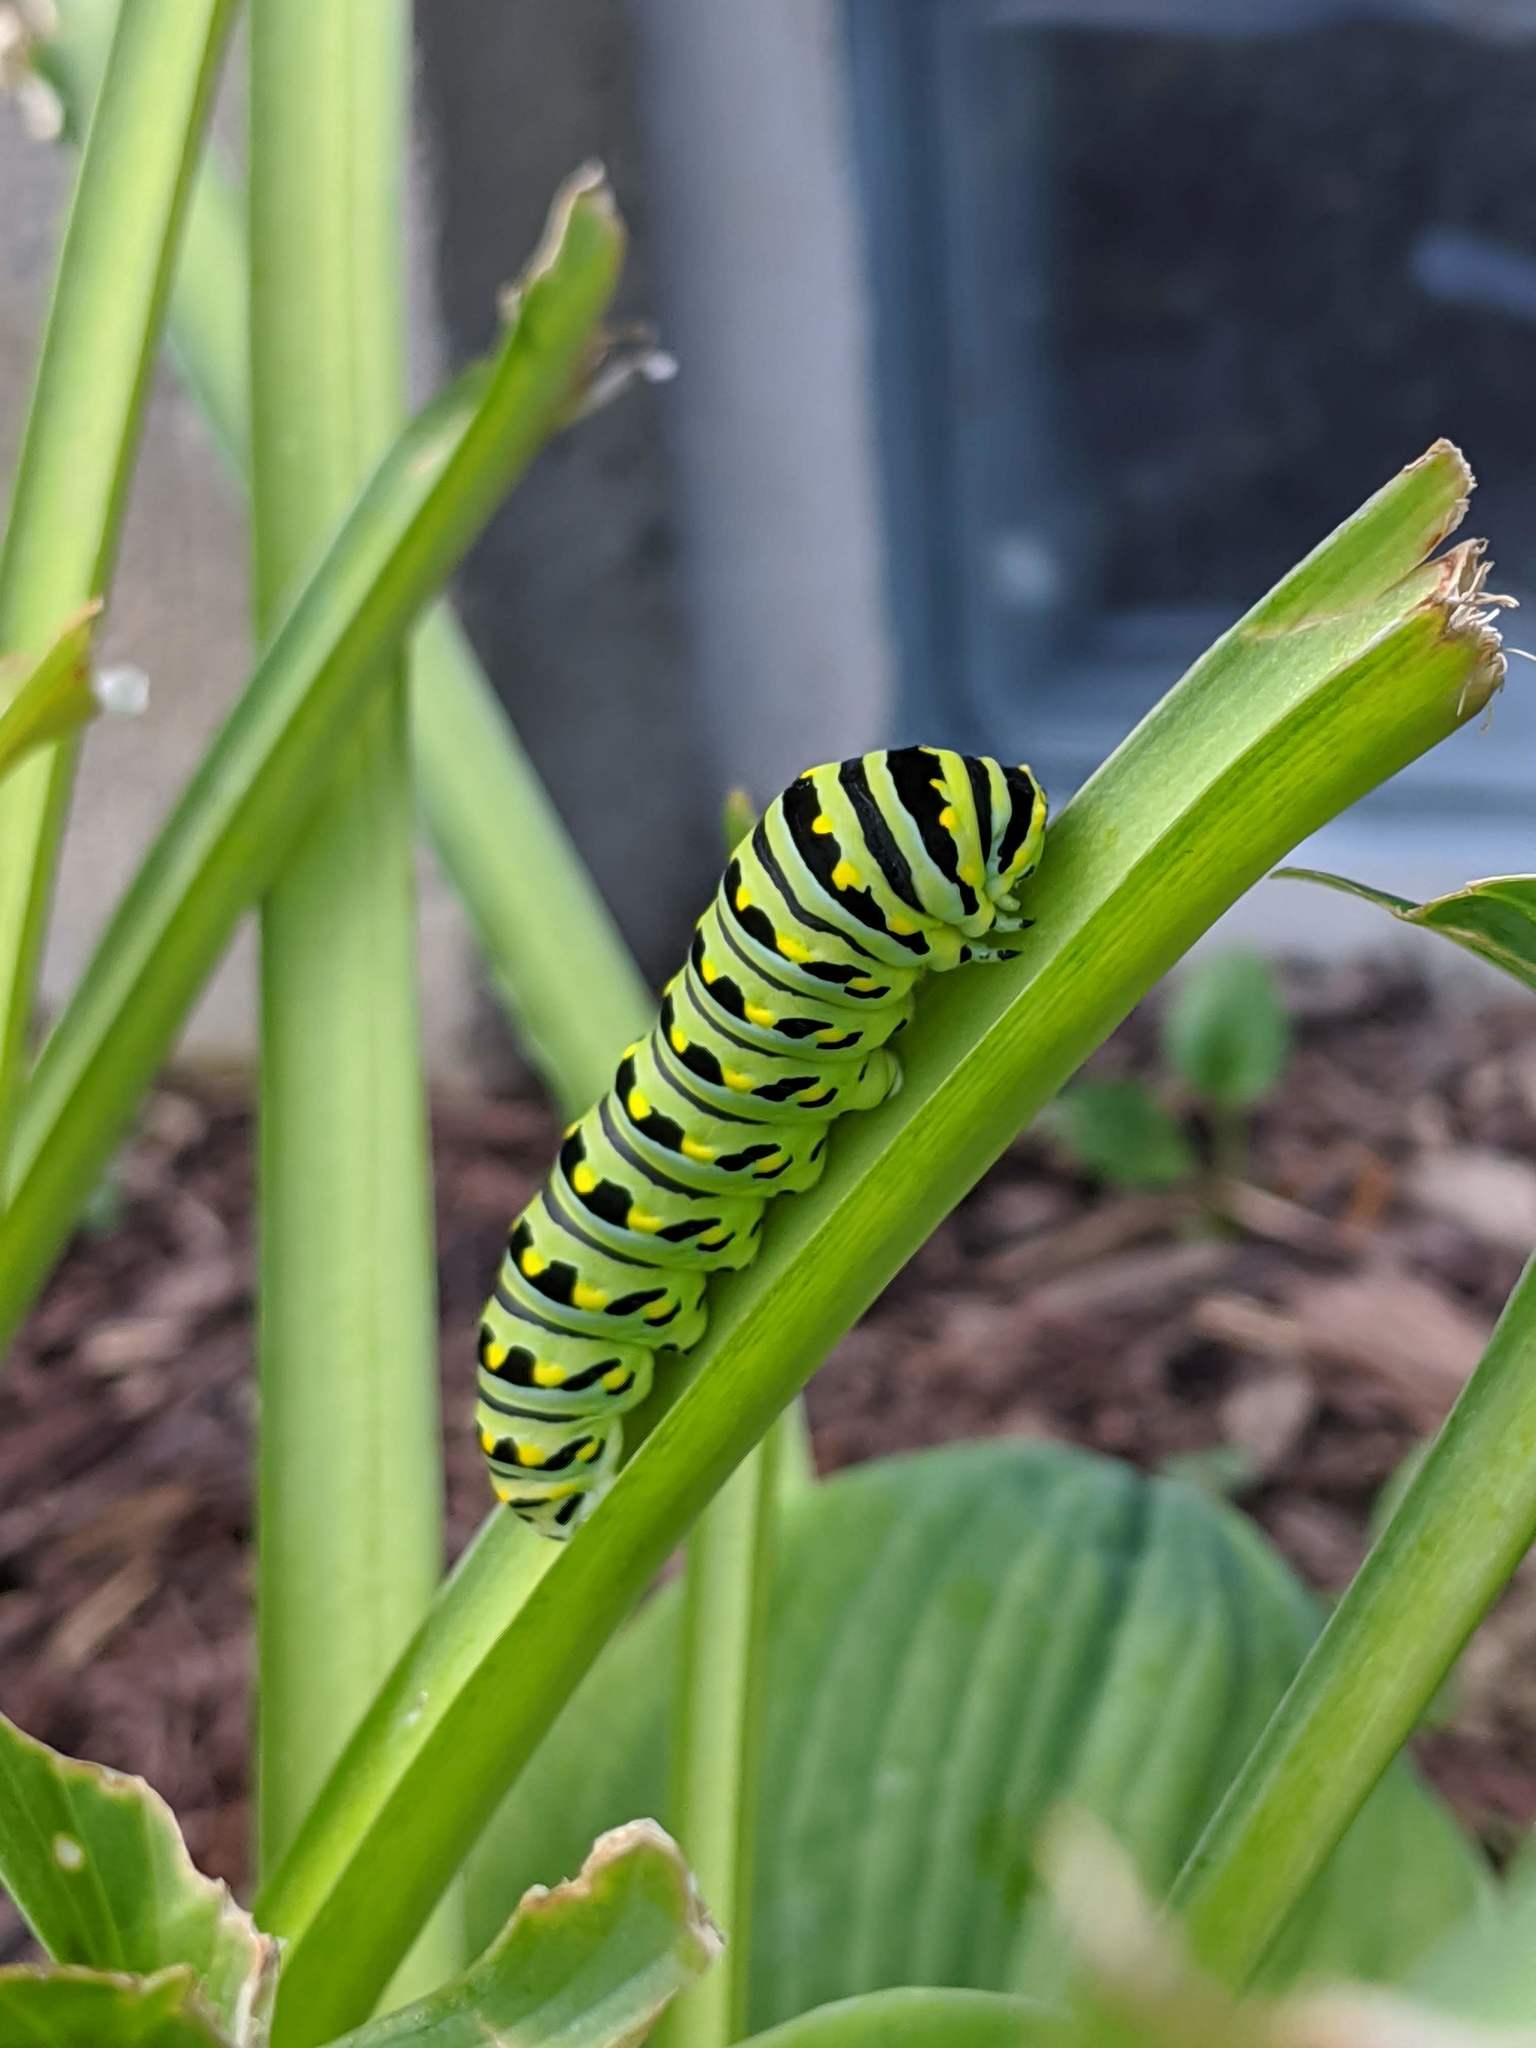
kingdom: Animalia
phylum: Arthropoda
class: Insecta
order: Lepidoptera
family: Papilionidae
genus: Papilio
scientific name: Papilio polyxenes
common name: Black swallowtail
